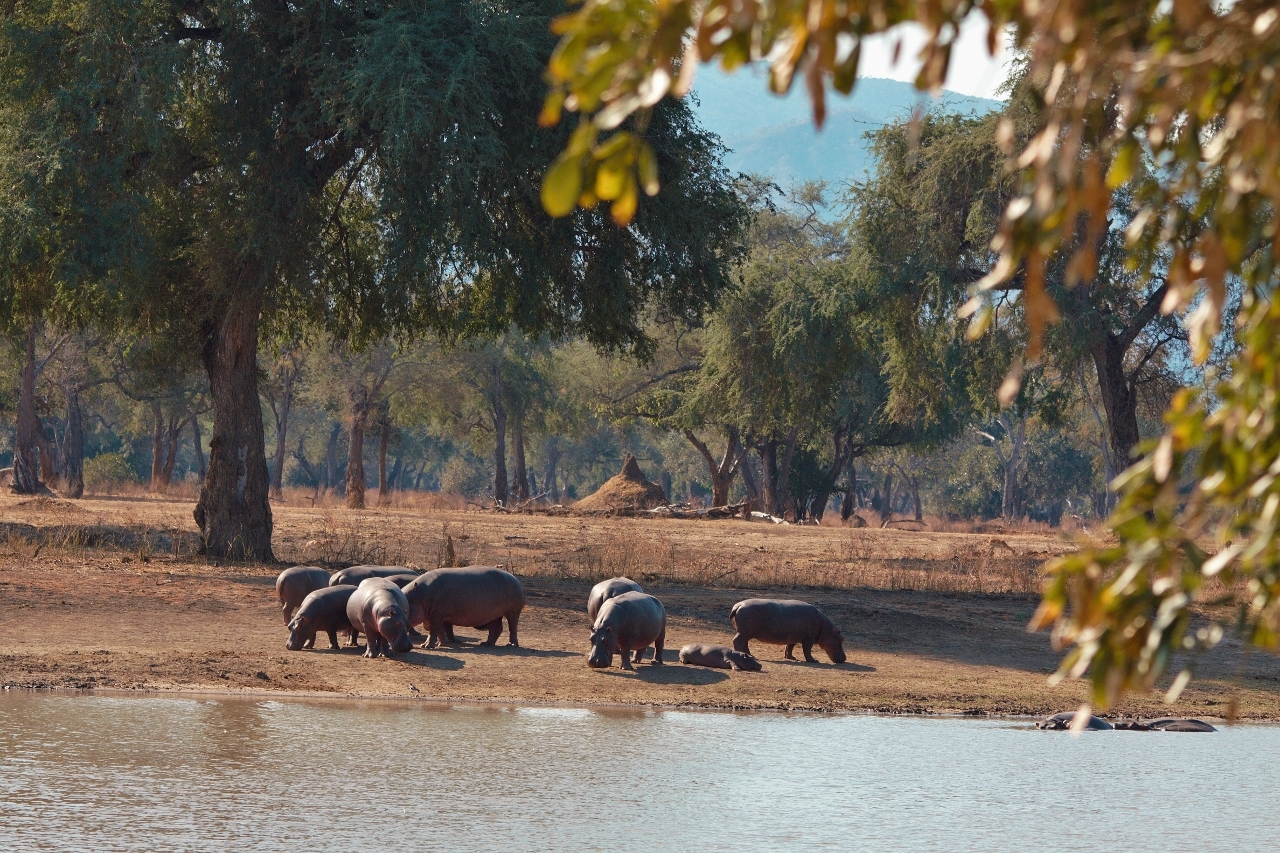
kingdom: Animalia
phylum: Chordata
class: Mammalia
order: Artiodactyla
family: Hippopotamidae
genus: Hippopotamus
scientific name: Hippopotamus amphibius
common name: Common hippopotamus
